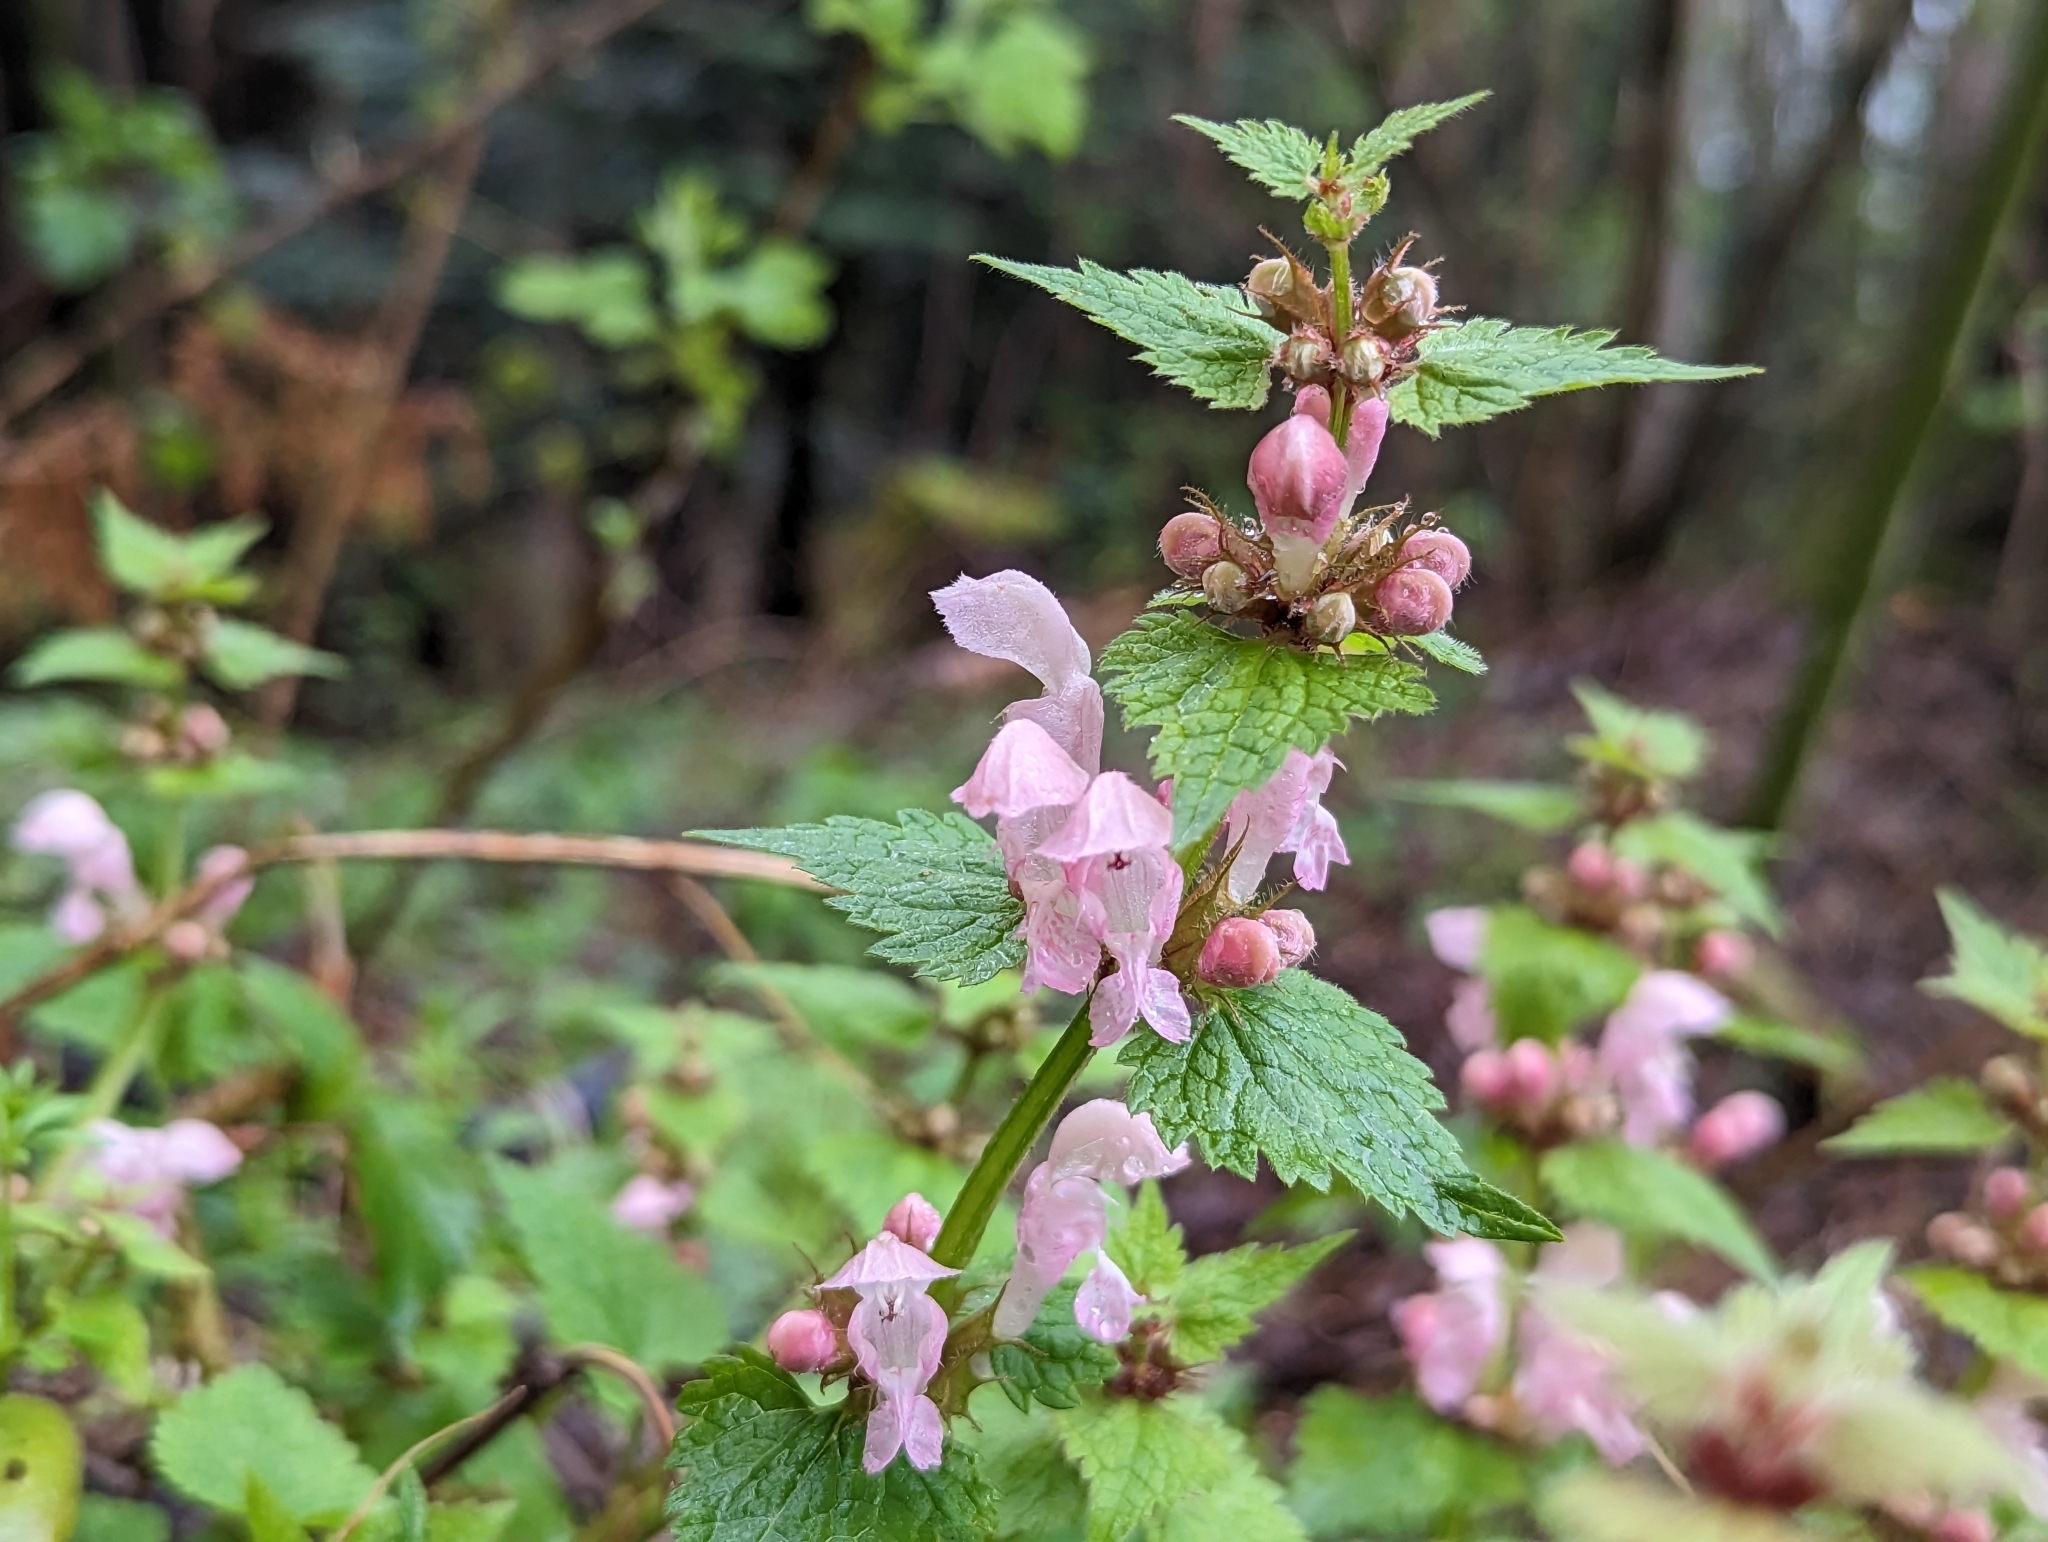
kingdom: Plantae
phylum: Tracheophyta
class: Magnoliopsida
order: Lamiales
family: Lamiaceae
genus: Lamium
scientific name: Lamium maculatum
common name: Spotted dead-nettle
